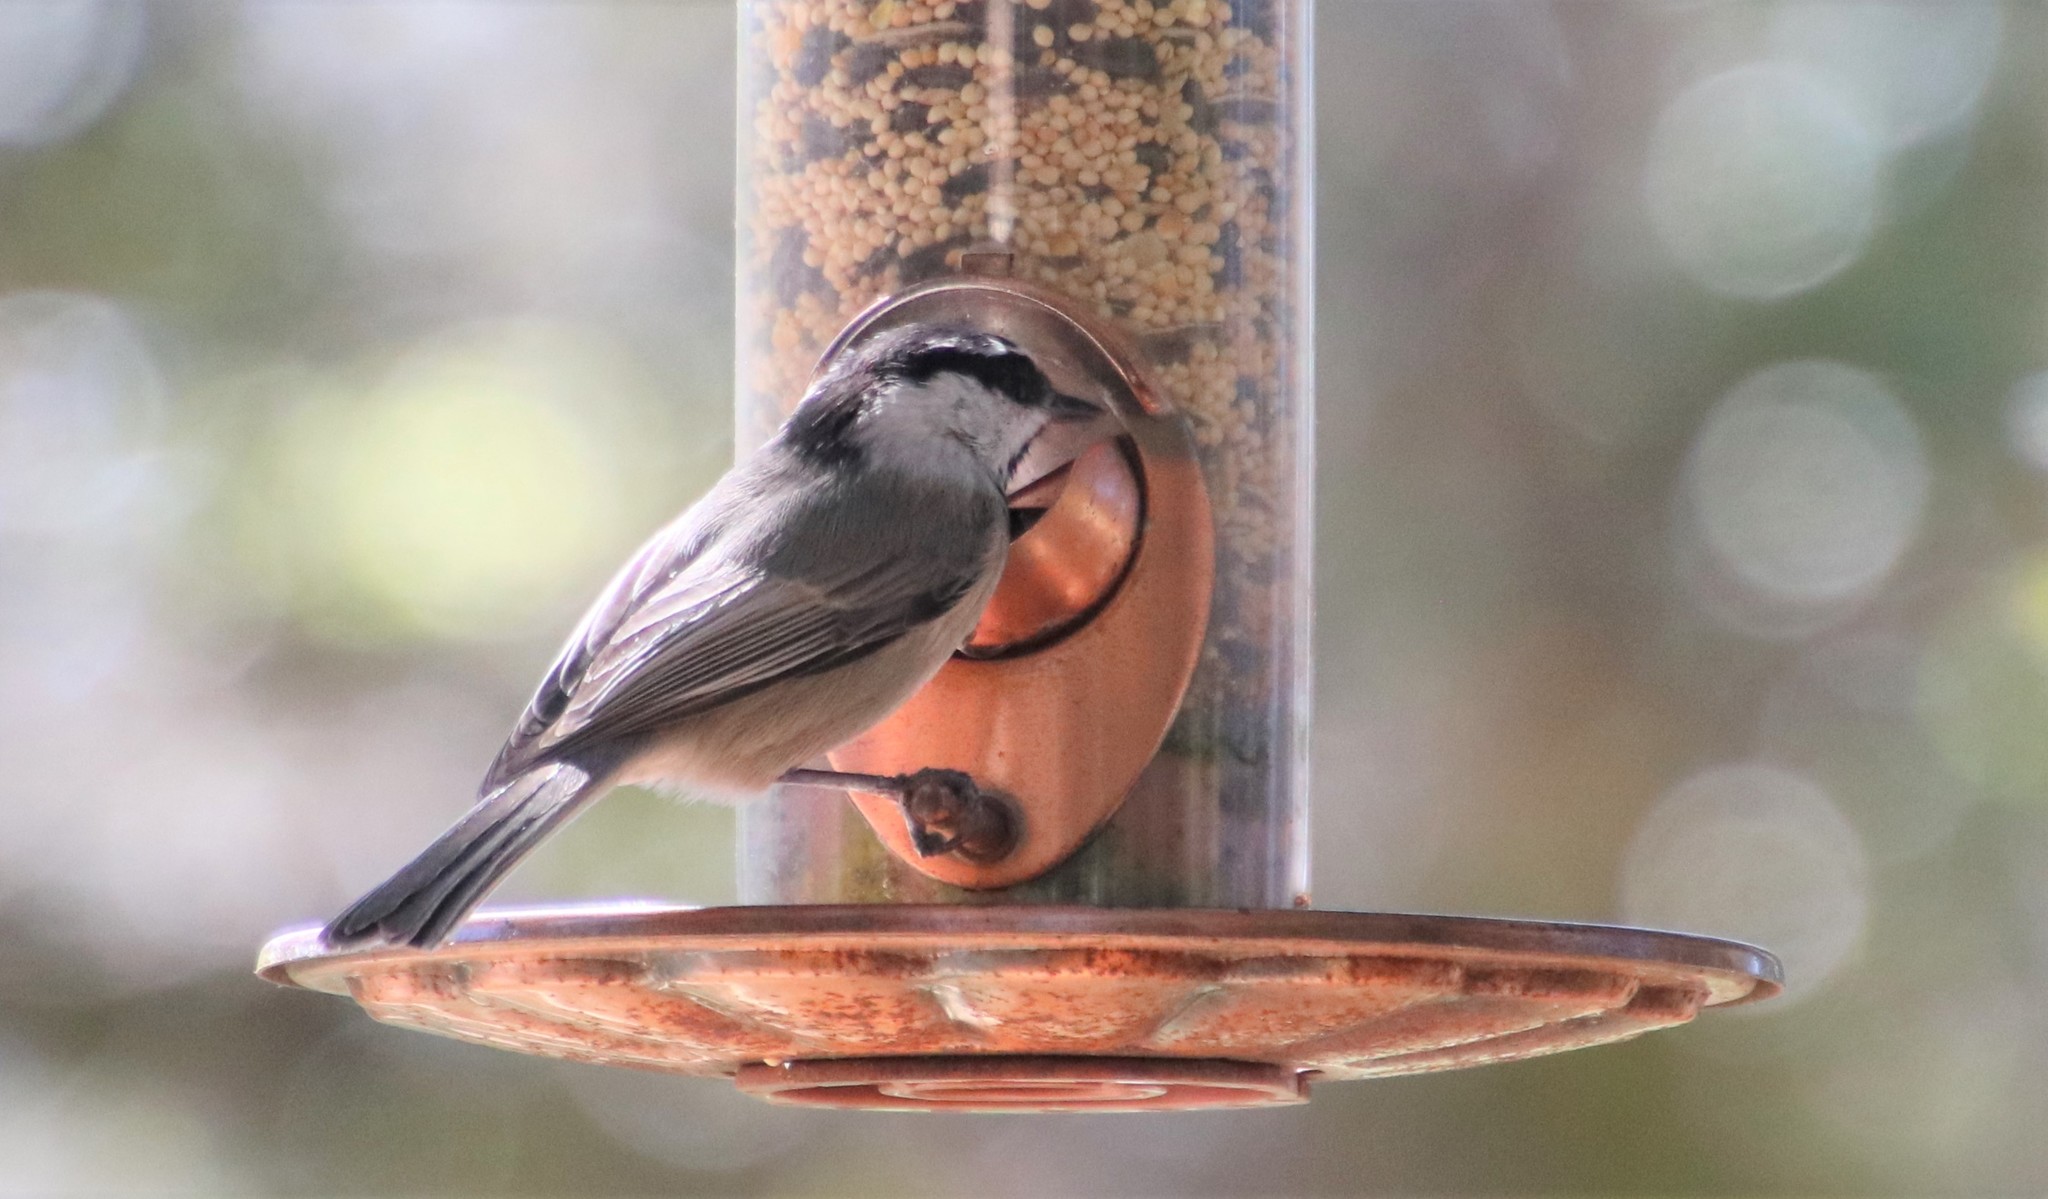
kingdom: Animalia
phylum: Chordata
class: Aves
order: Passeriformes
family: Paridae
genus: Poecile
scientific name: Poecile gambeli
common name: Mountain chickadee
